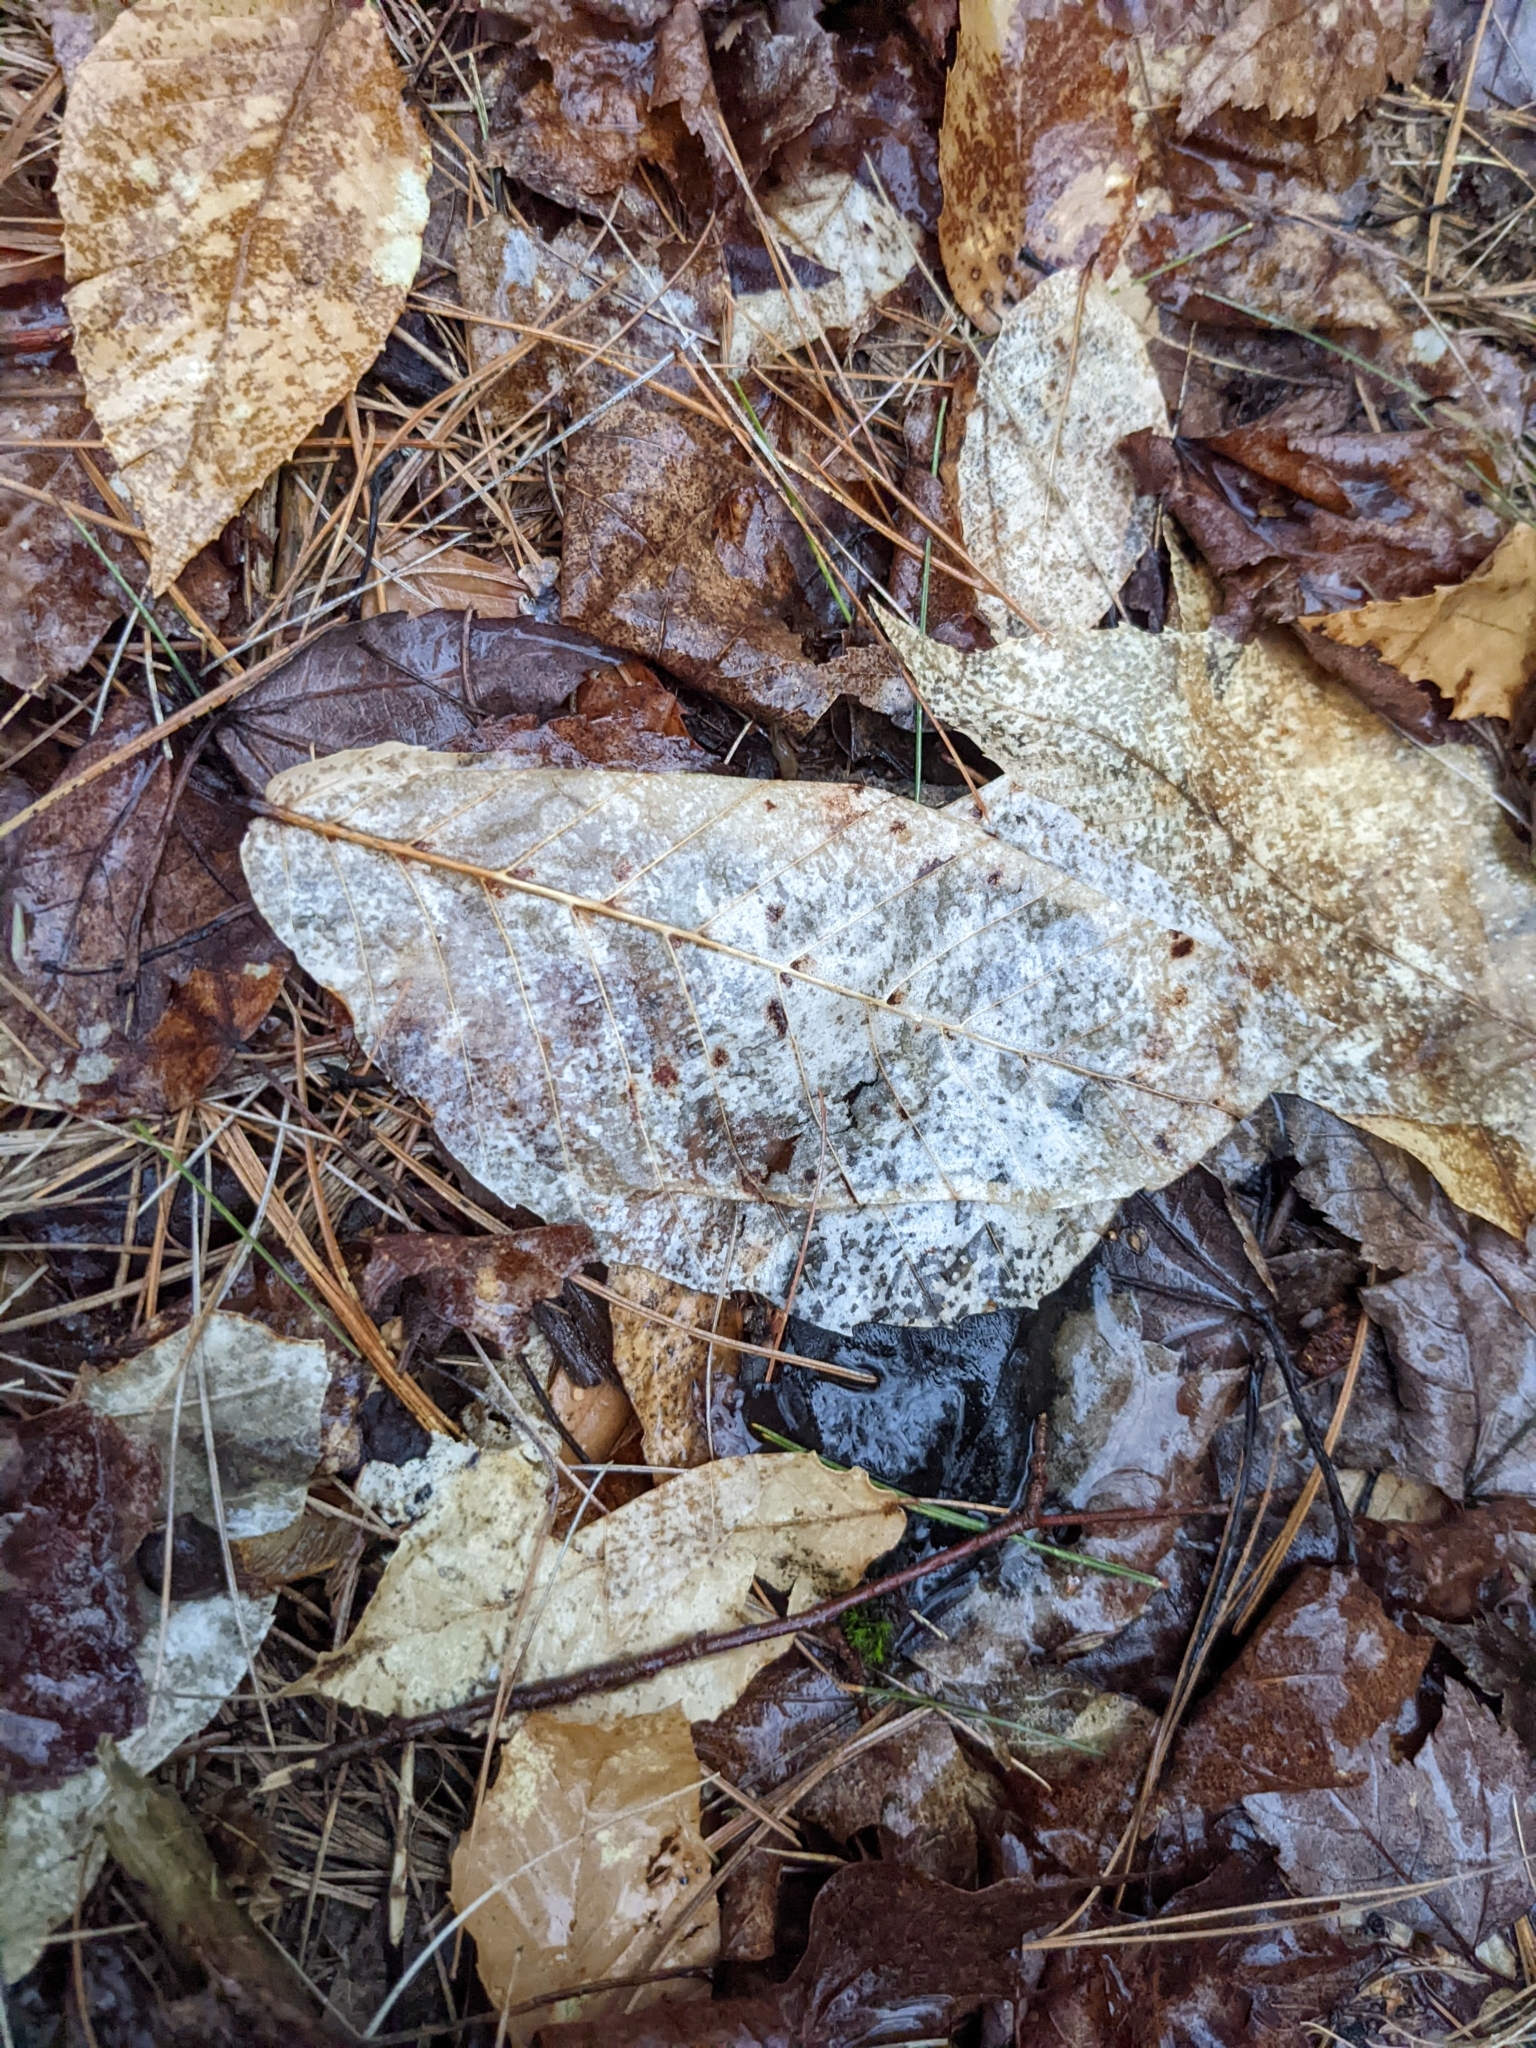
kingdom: Plantae
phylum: Tracheophyta
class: Magnoliopsida
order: Fagales
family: Fagaceae
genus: Fagus
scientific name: Fagus grandifolia
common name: American beech
